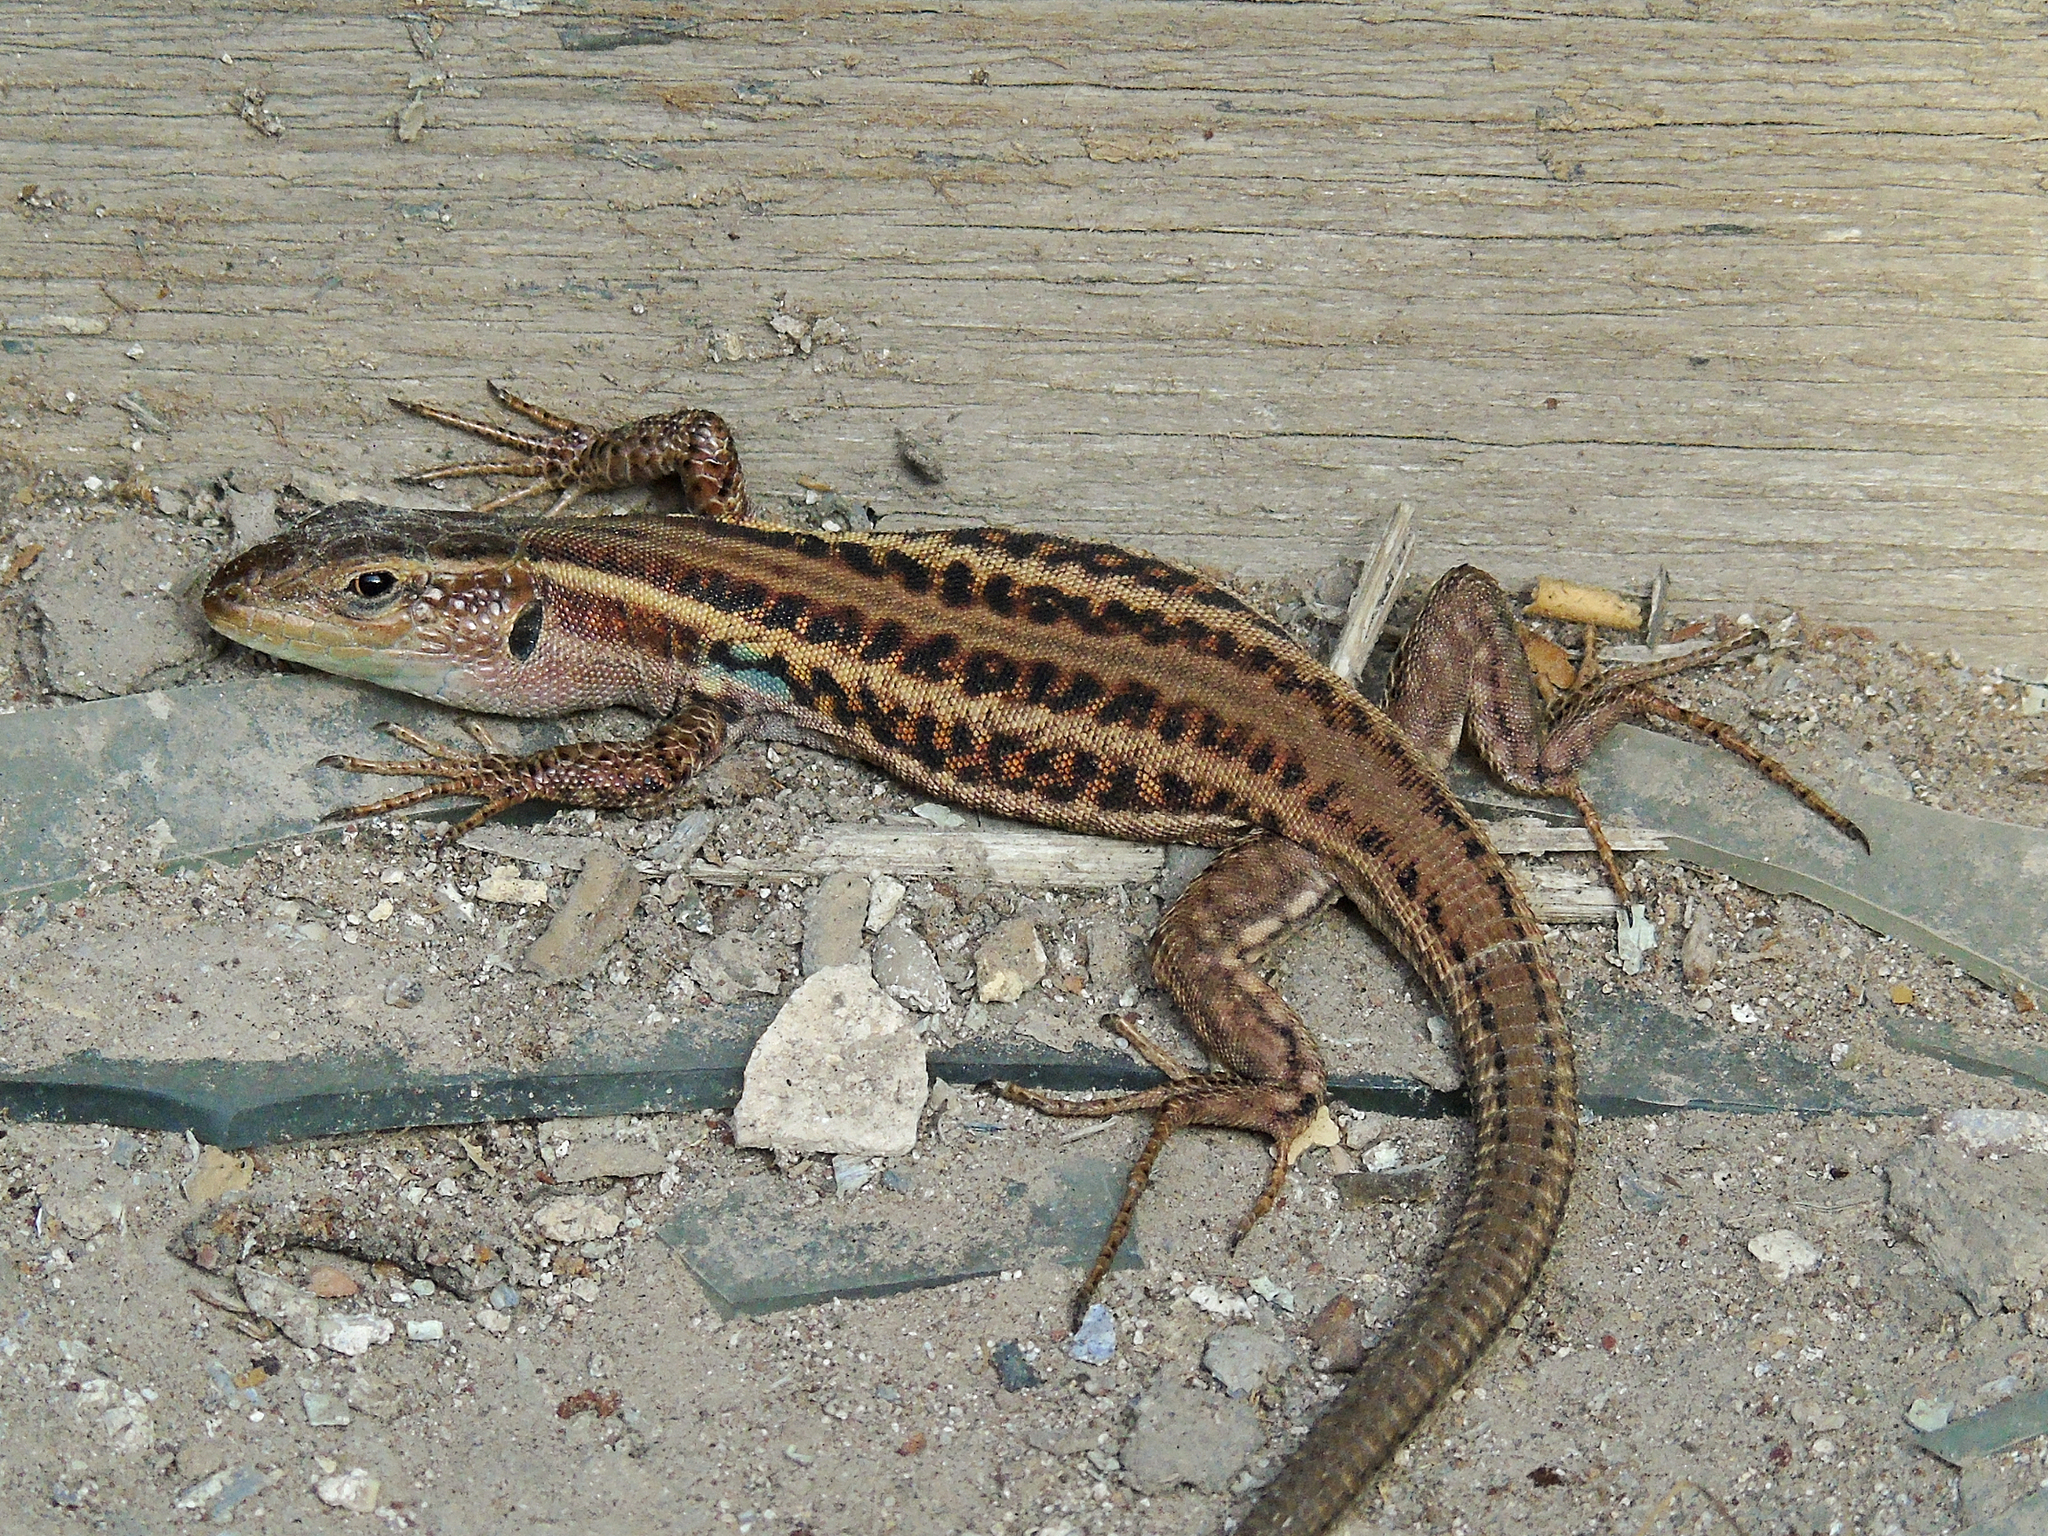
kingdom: Animalia
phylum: Chordata
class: Squamata
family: Lacertidae
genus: Podarcis
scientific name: Podarcis peloponnesiacus
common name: Peloponnese wall lizard
